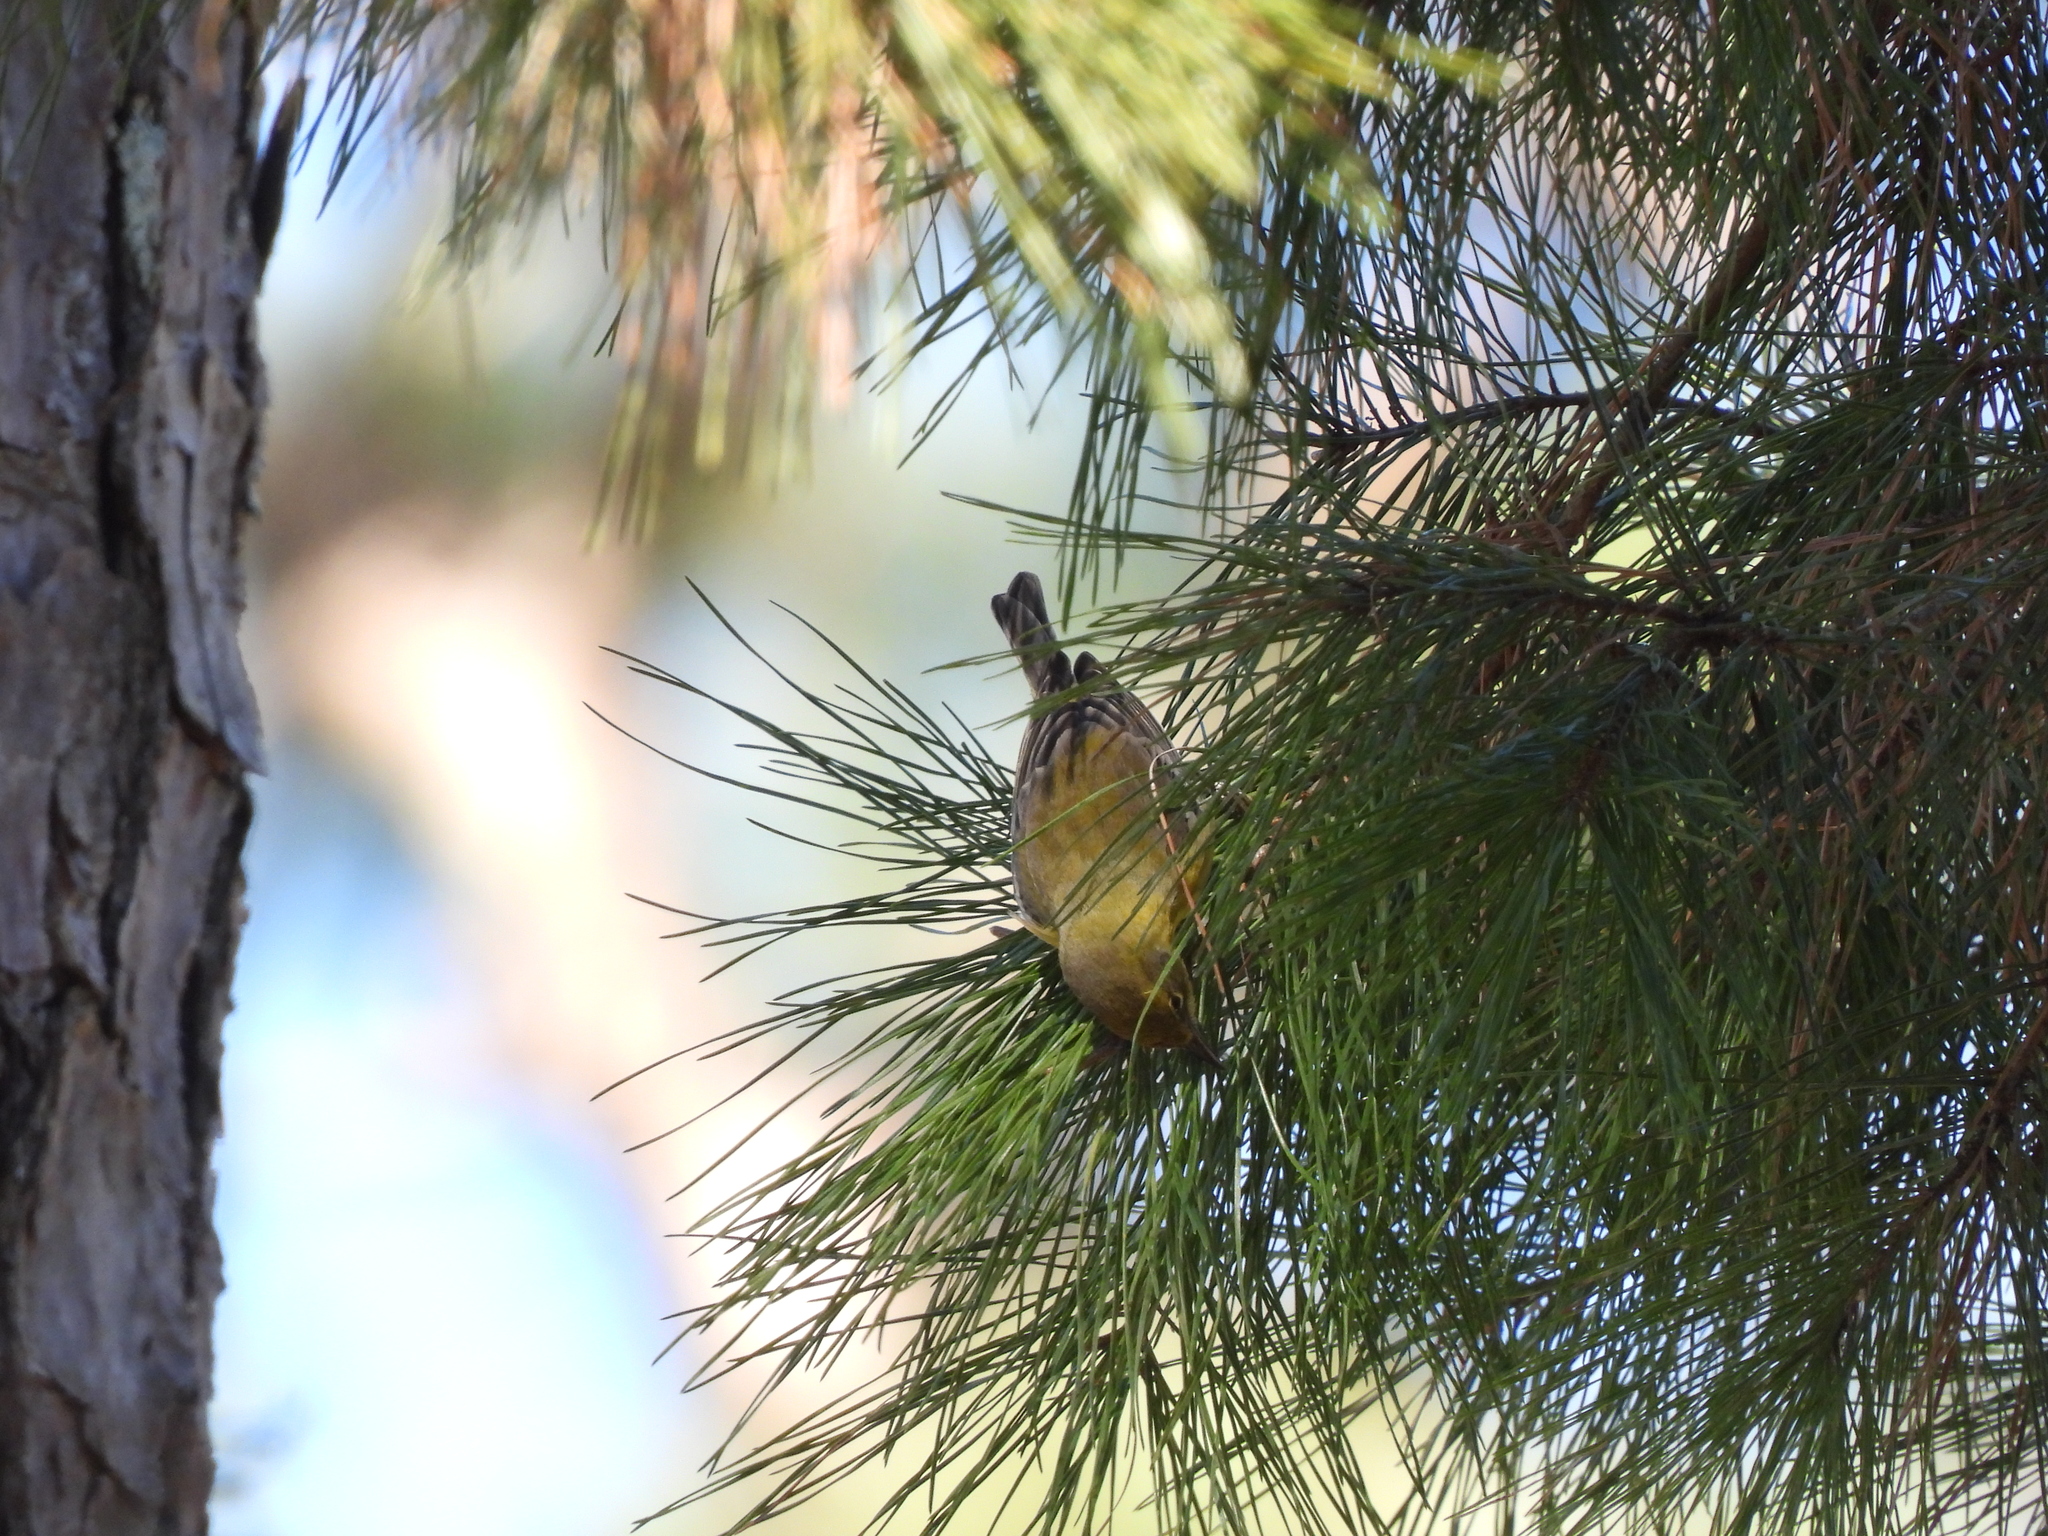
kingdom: Animalia
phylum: Chordata
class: Aves
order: Passeriformes
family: Parulidae
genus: Setophaga
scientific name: Setophaga pinus
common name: Pine warbler
